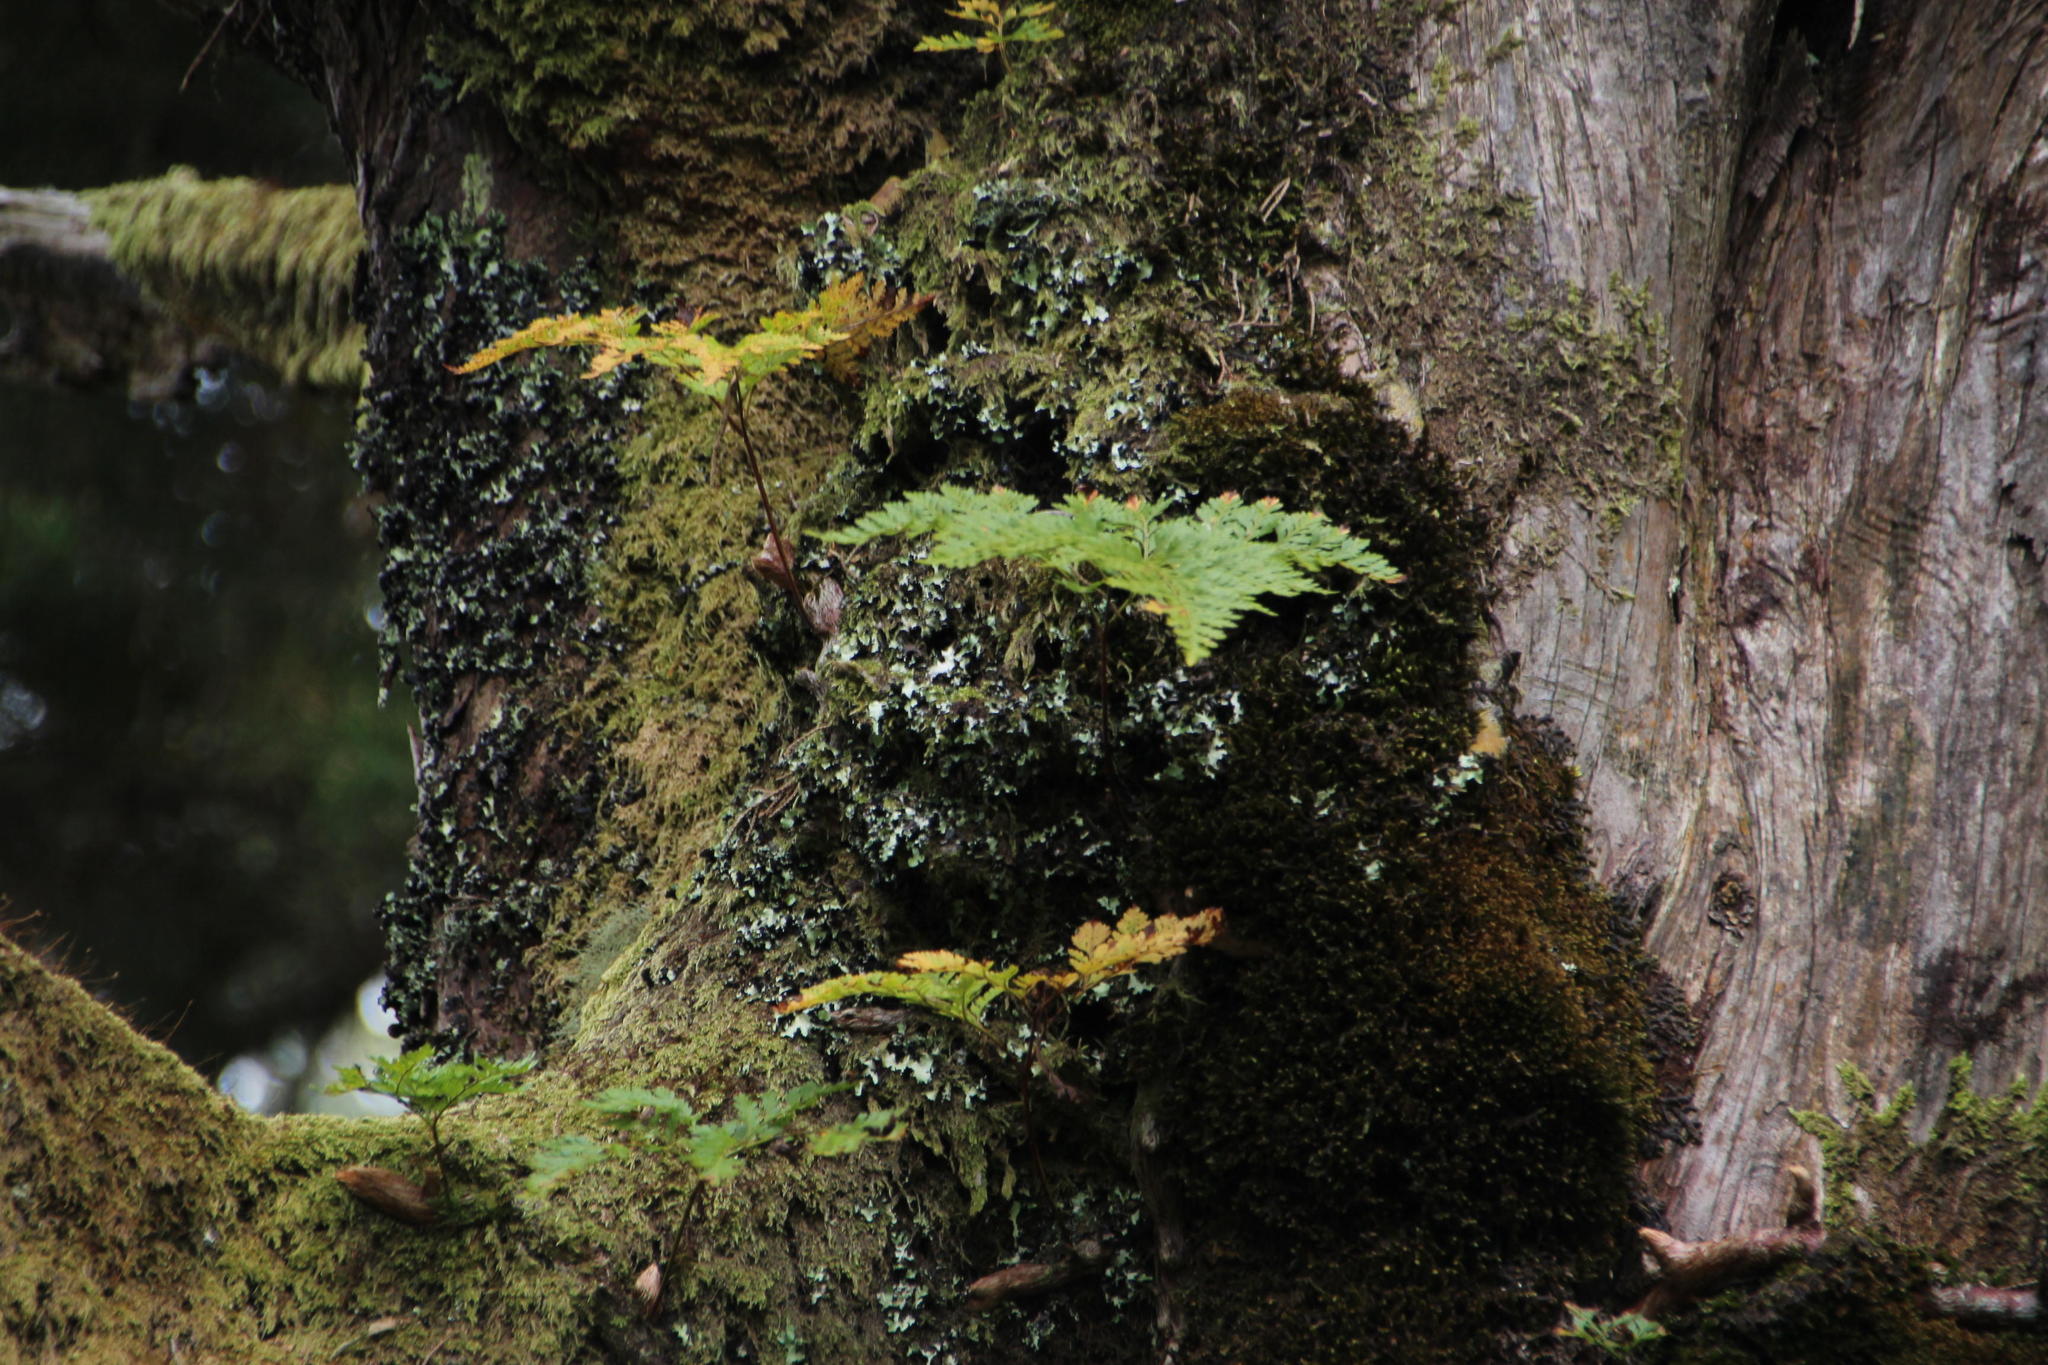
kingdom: Plantae
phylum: Tracheophyta
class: Polypodiopsida
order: Polypodiales
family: Davalliaceae
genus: Davallia
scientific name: Davallia canariensis
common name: Hare's-foot fern
